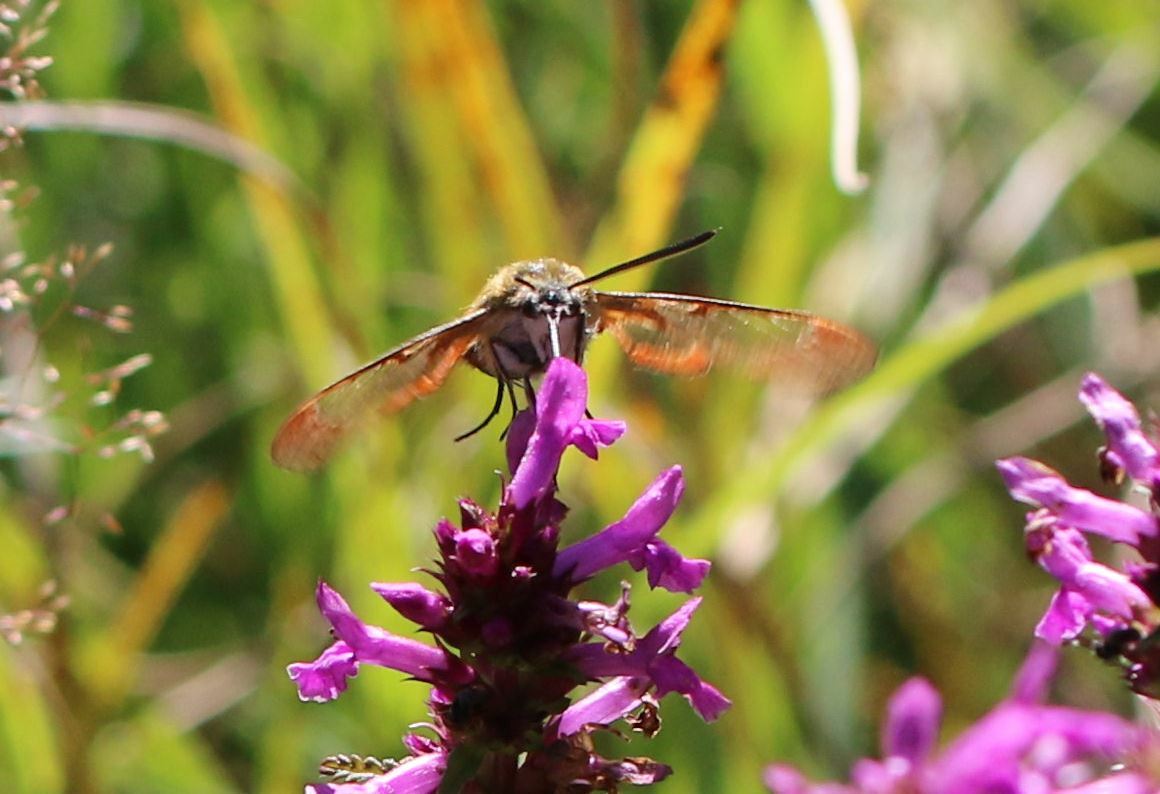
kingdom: Animalia
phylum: Arthropoda
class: Insecta
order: Lepidoptera
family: Sphingidae
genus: Hemaris
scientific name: Hemaris fuciformis
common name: Broad-bordered bee hawk-moth
